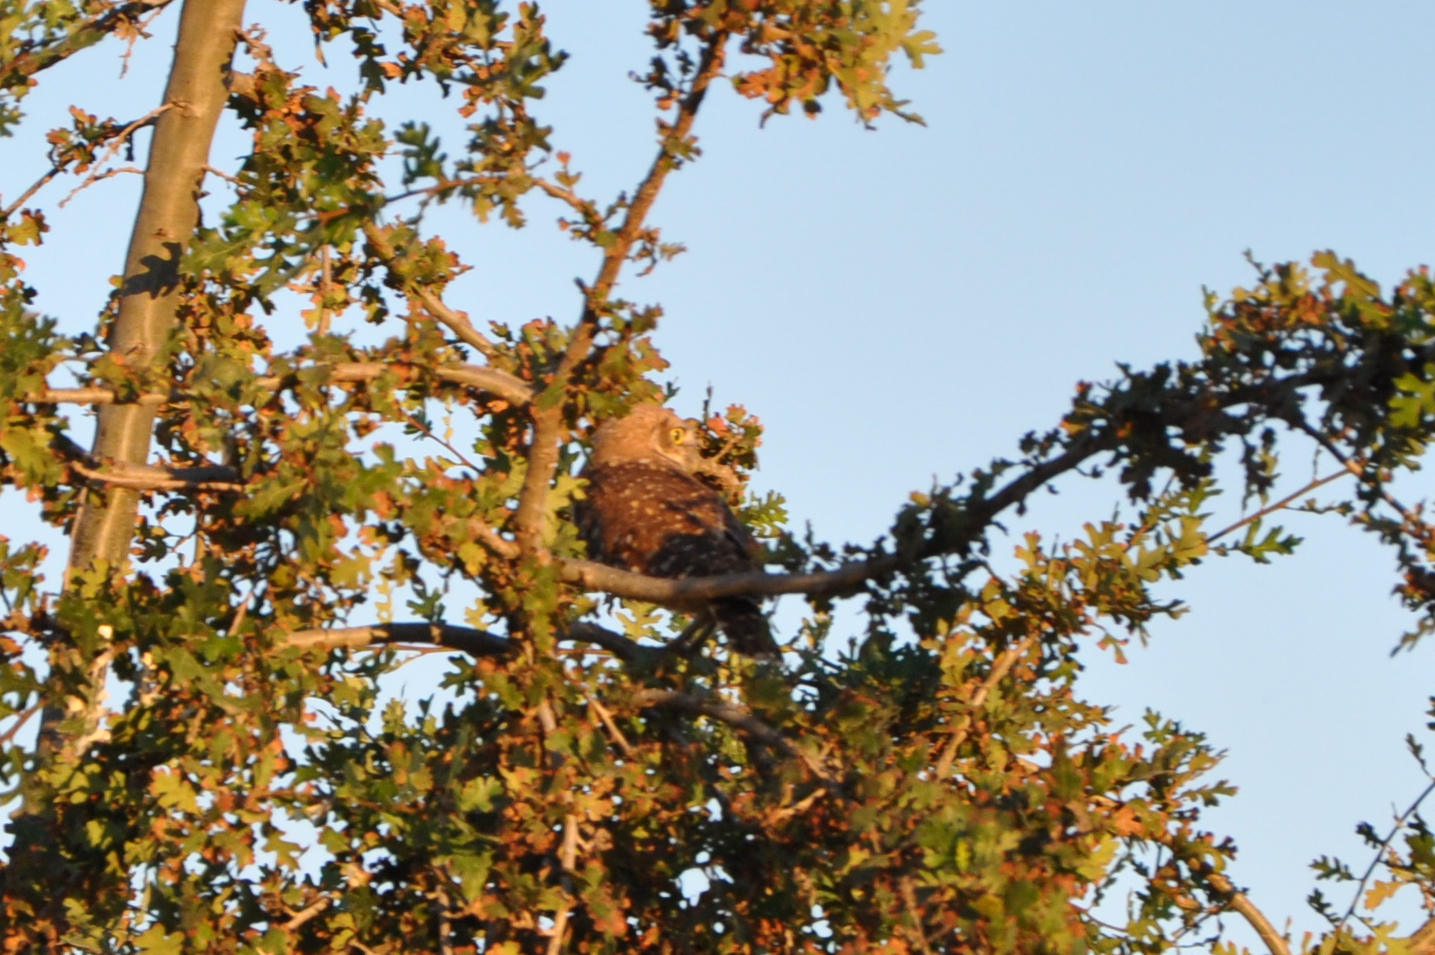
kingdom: Animalia
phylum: Chordata
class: Aves
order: Strigiformes
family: Strigidae
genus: Athene
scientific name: Athene cunicularia
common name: Burrowing owl
